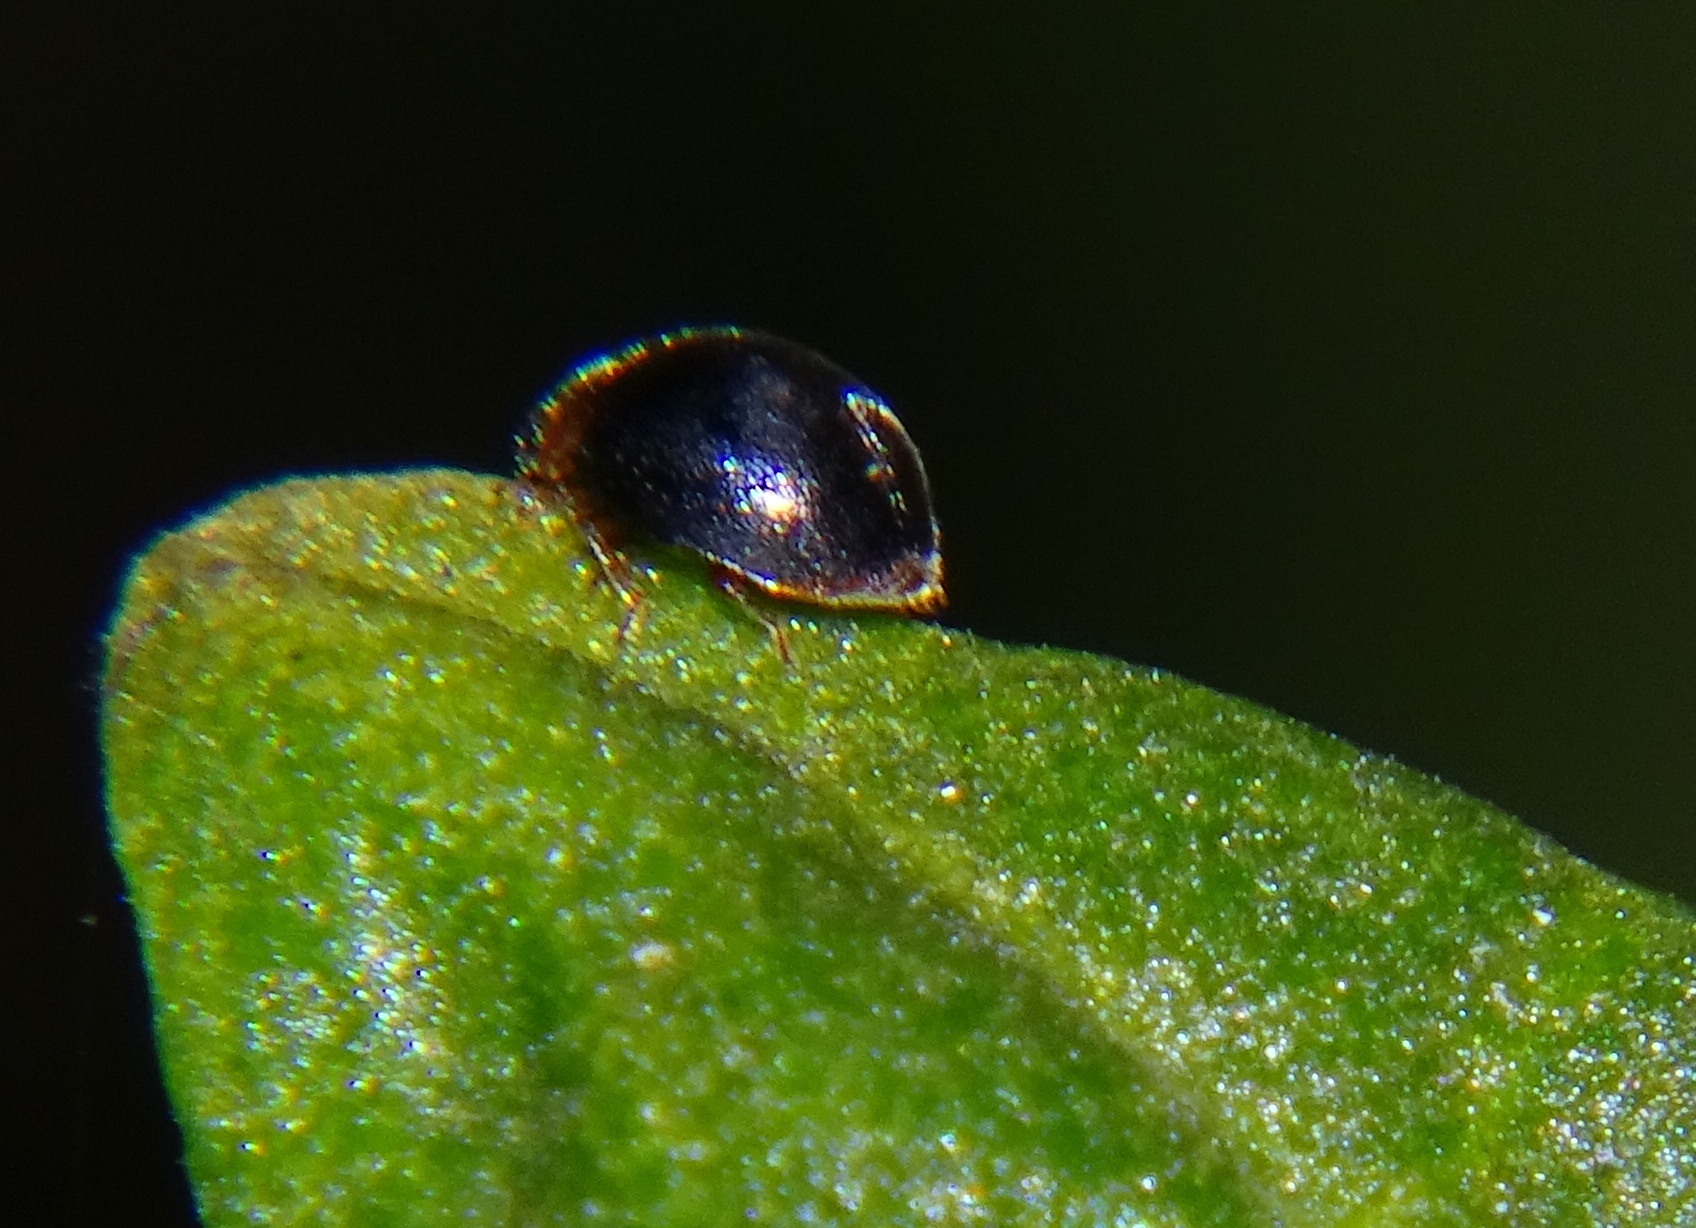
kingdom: Animalia
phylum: Arthropoda
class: Insecta
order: Coleoptera
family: Coccinellidae
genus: Scymnus
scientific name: Scymnus
